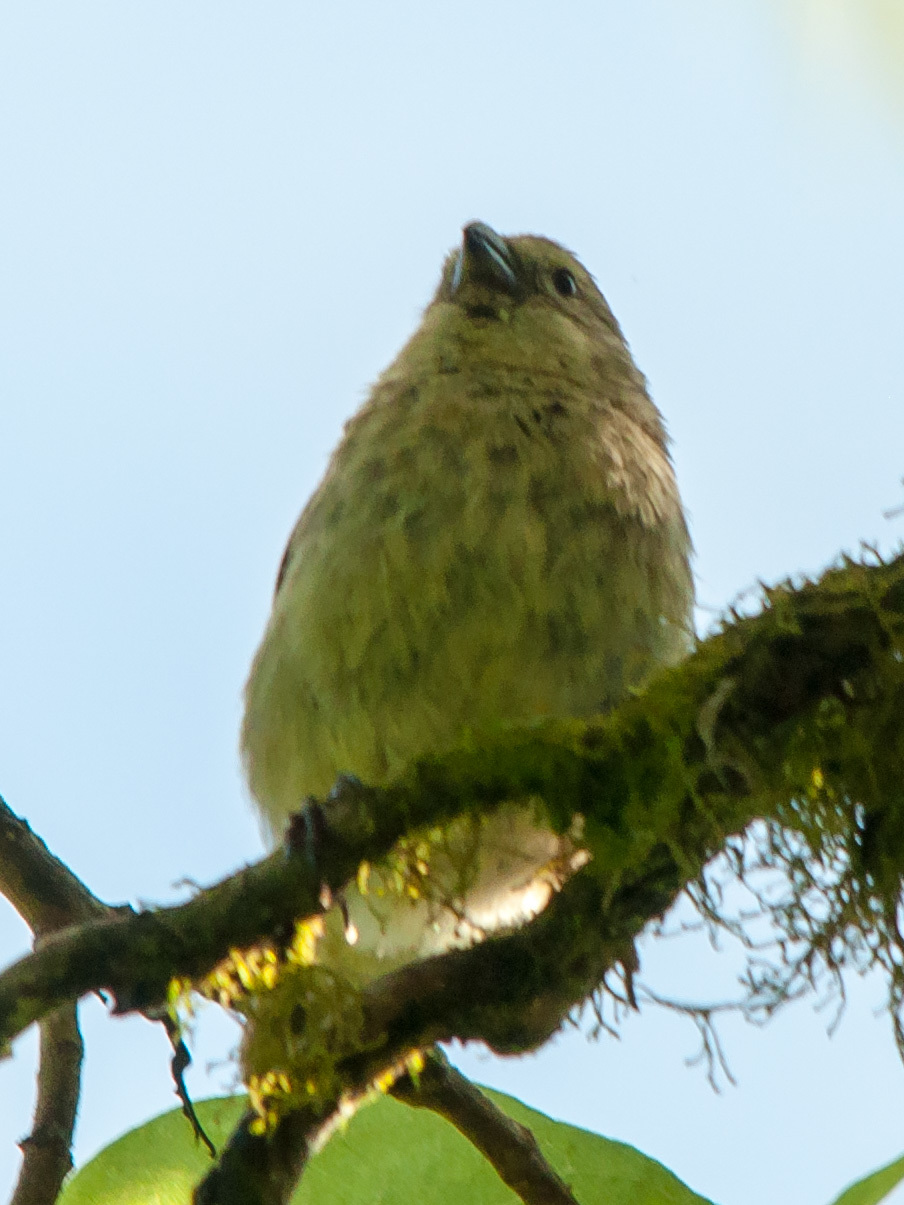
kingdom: Animalia
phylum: Chordata
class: Aves
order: Passeriformes
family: Thraupidae
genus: Camarhynchus
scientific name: Camarhynchus parvulus
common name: Small tree finch
